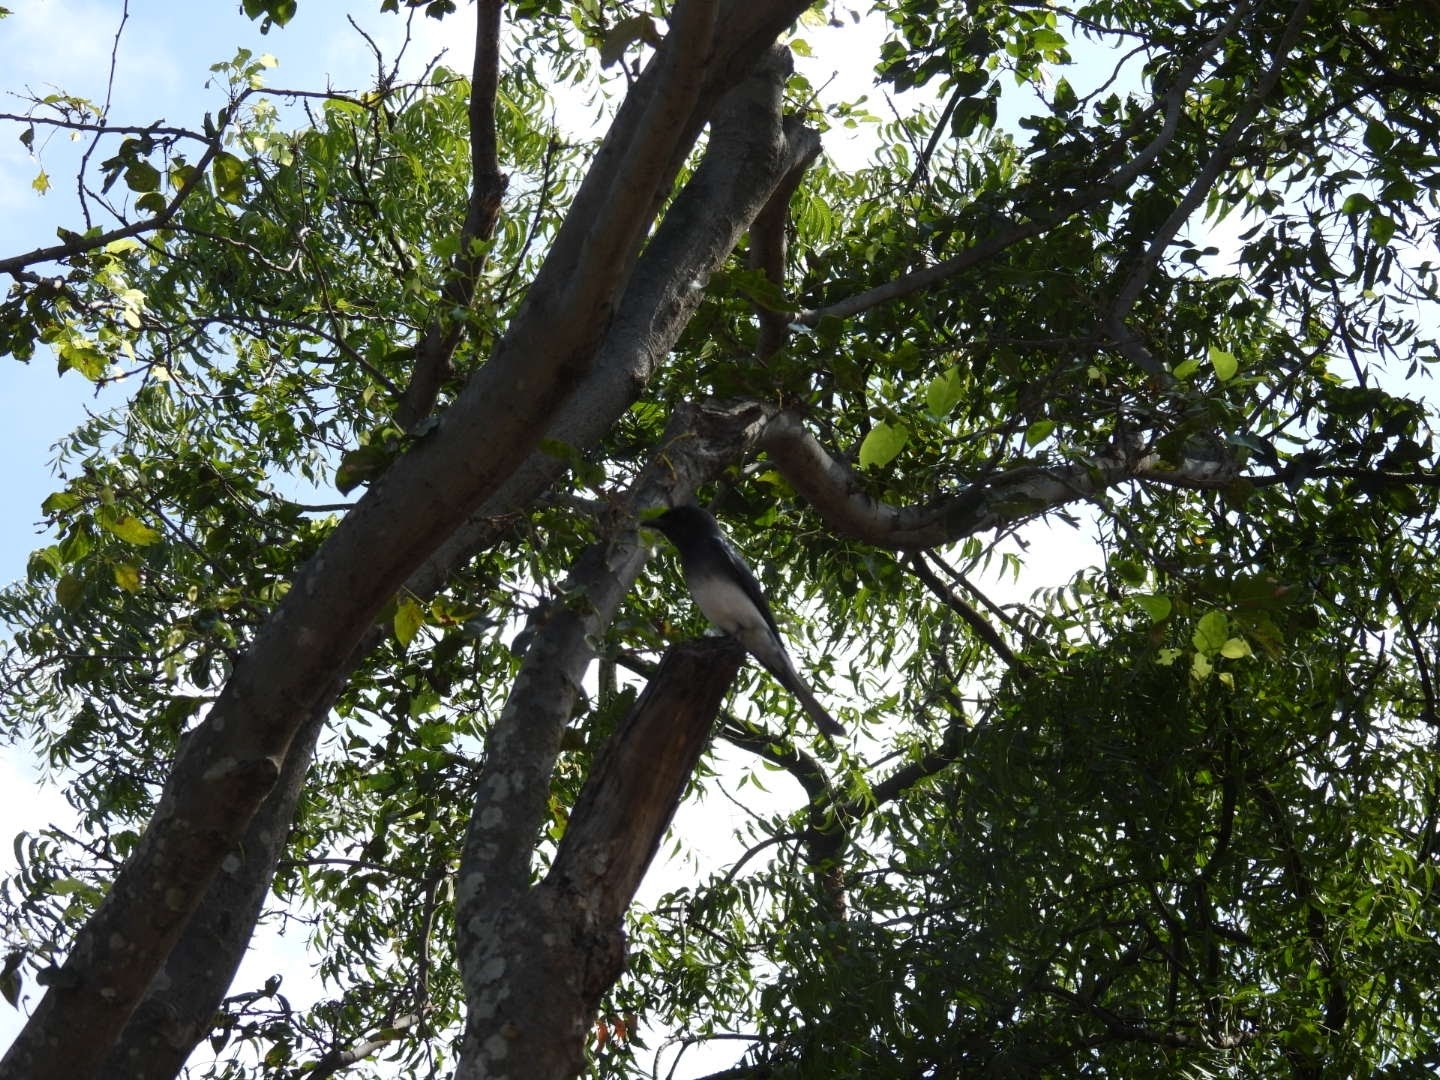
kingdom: Animalia
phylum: Chordata
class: Aves
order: Passeriformes
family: Dicruridae
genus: Dicrurus
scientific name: Dicrurus caerulescens
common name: White-bellied drongo
